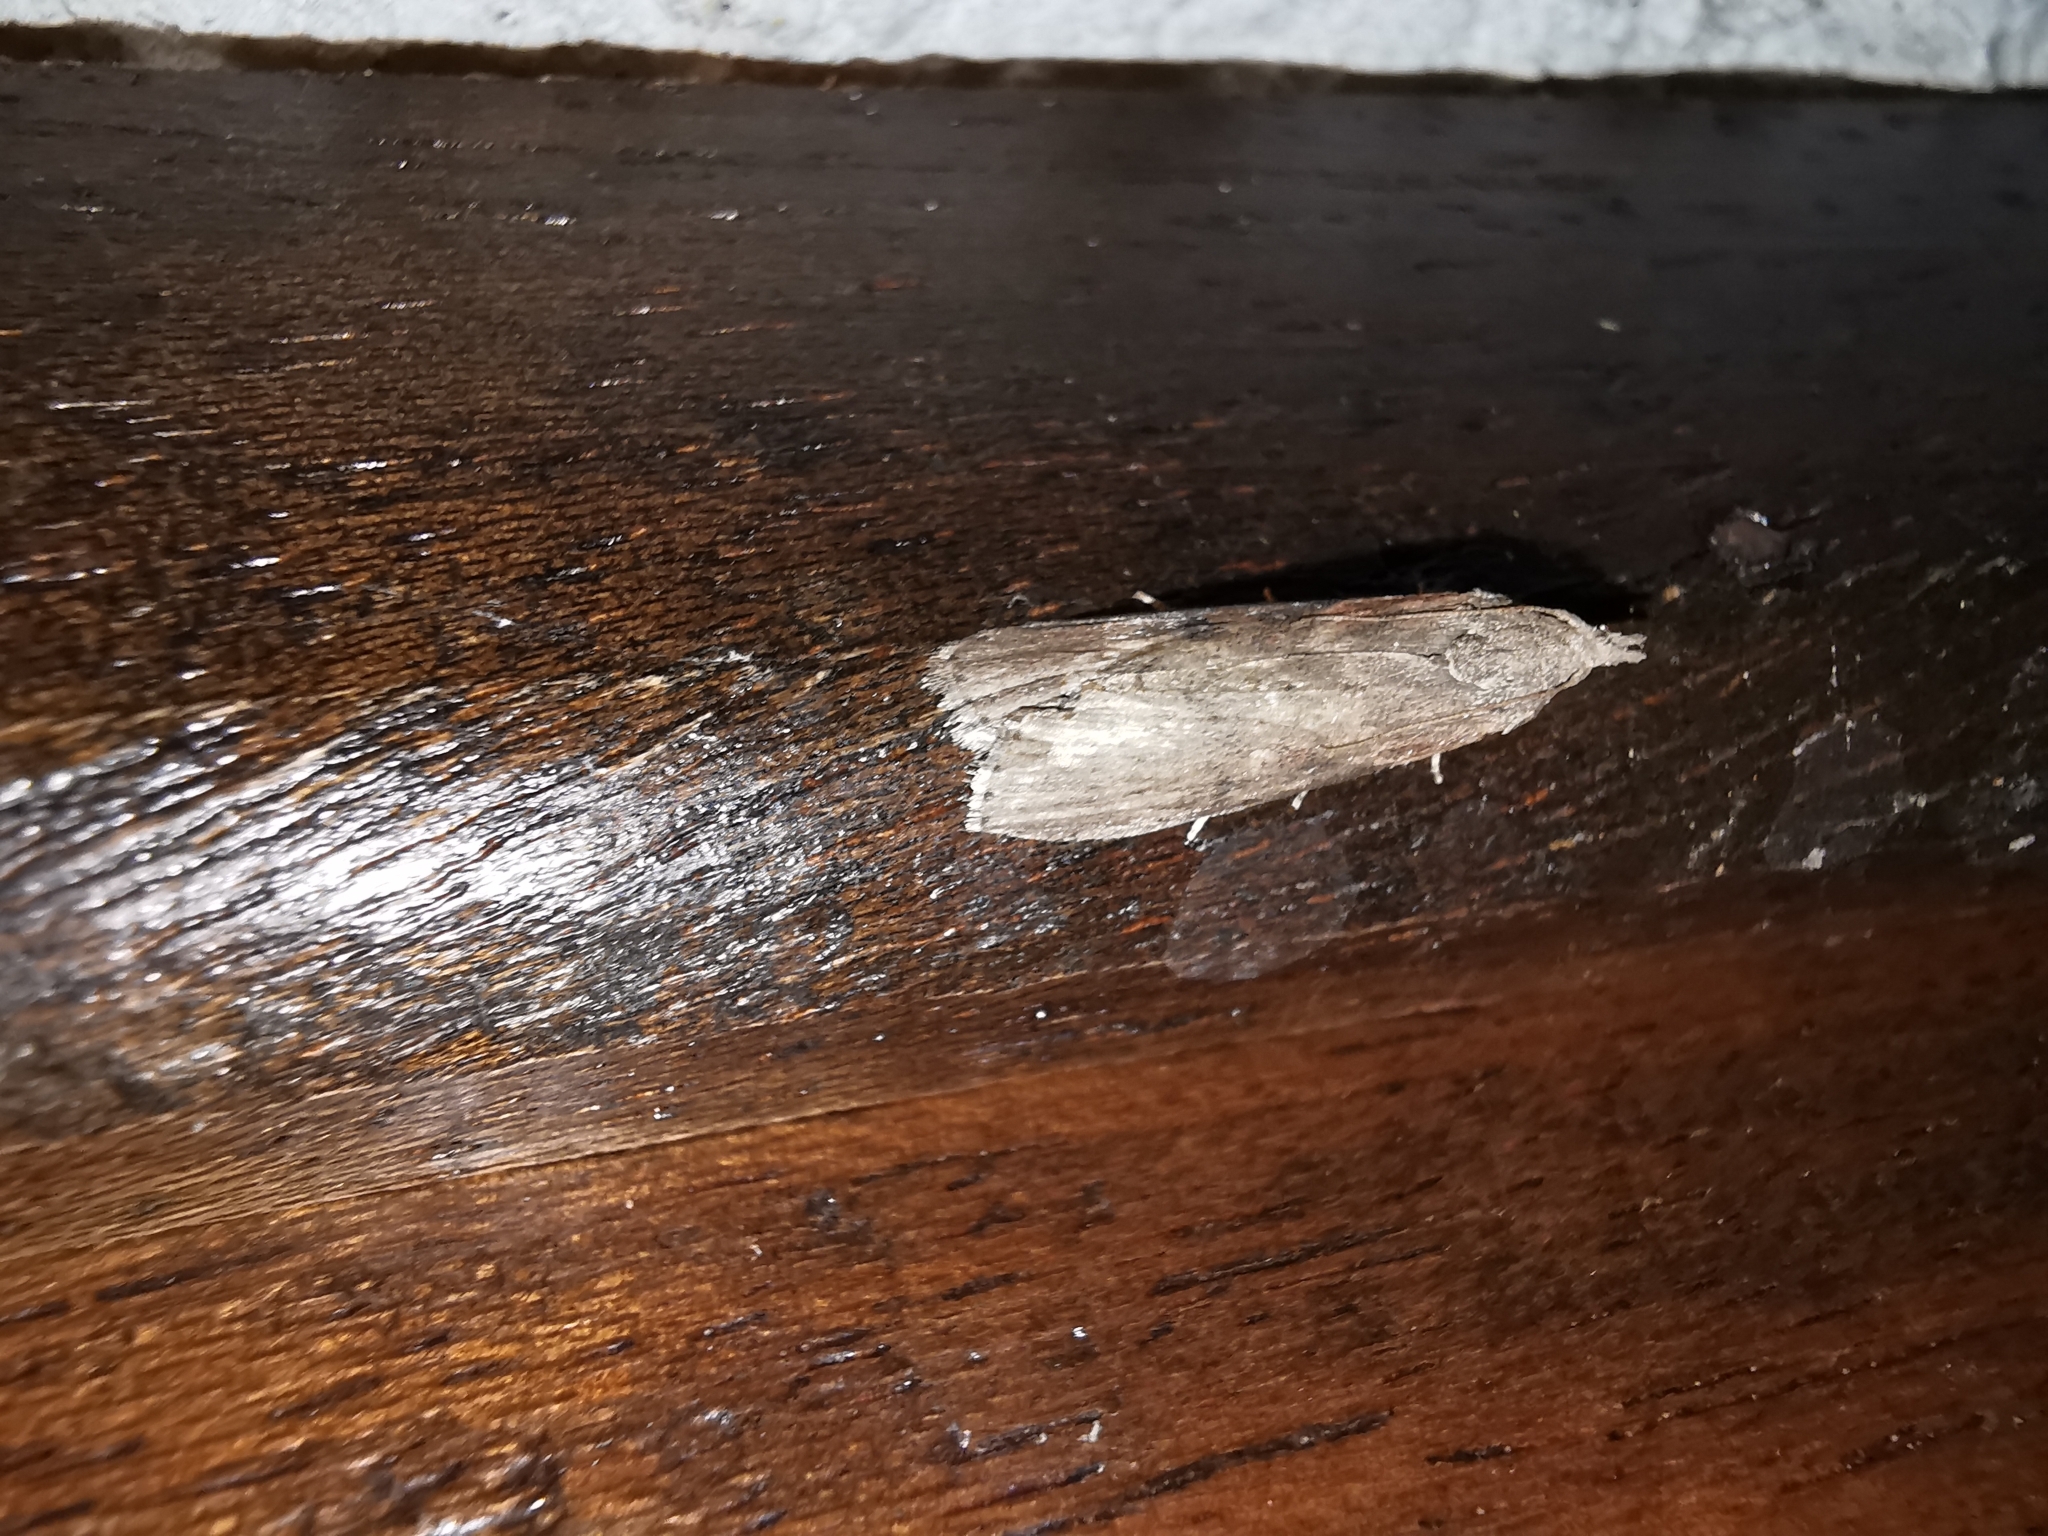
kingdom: Animalia
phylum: Arthropoda
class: Insecta
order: Lepidoptera
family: Pyralidae
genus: Lamoria
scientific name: Lamoria anella
